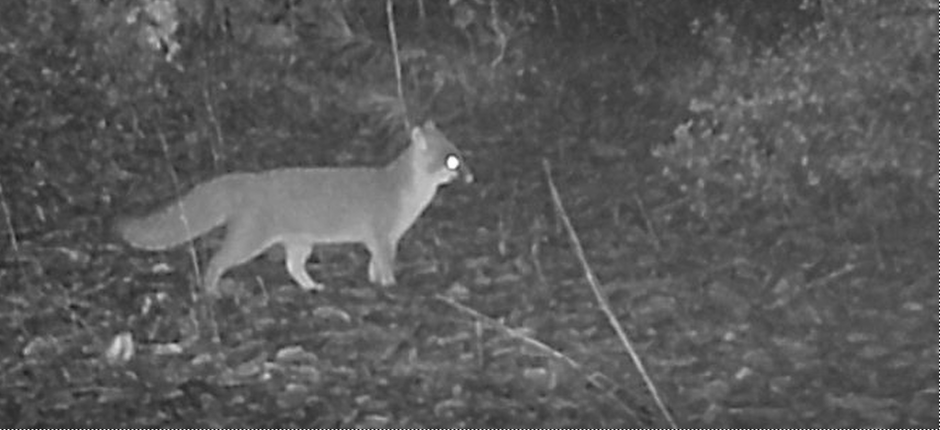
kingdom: Animalia
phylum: Chordata
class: Mammalia
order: Carnivora
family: Canidae
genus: Urocyon
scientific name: Urocyon cinereoargenteus
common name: Gray fox
